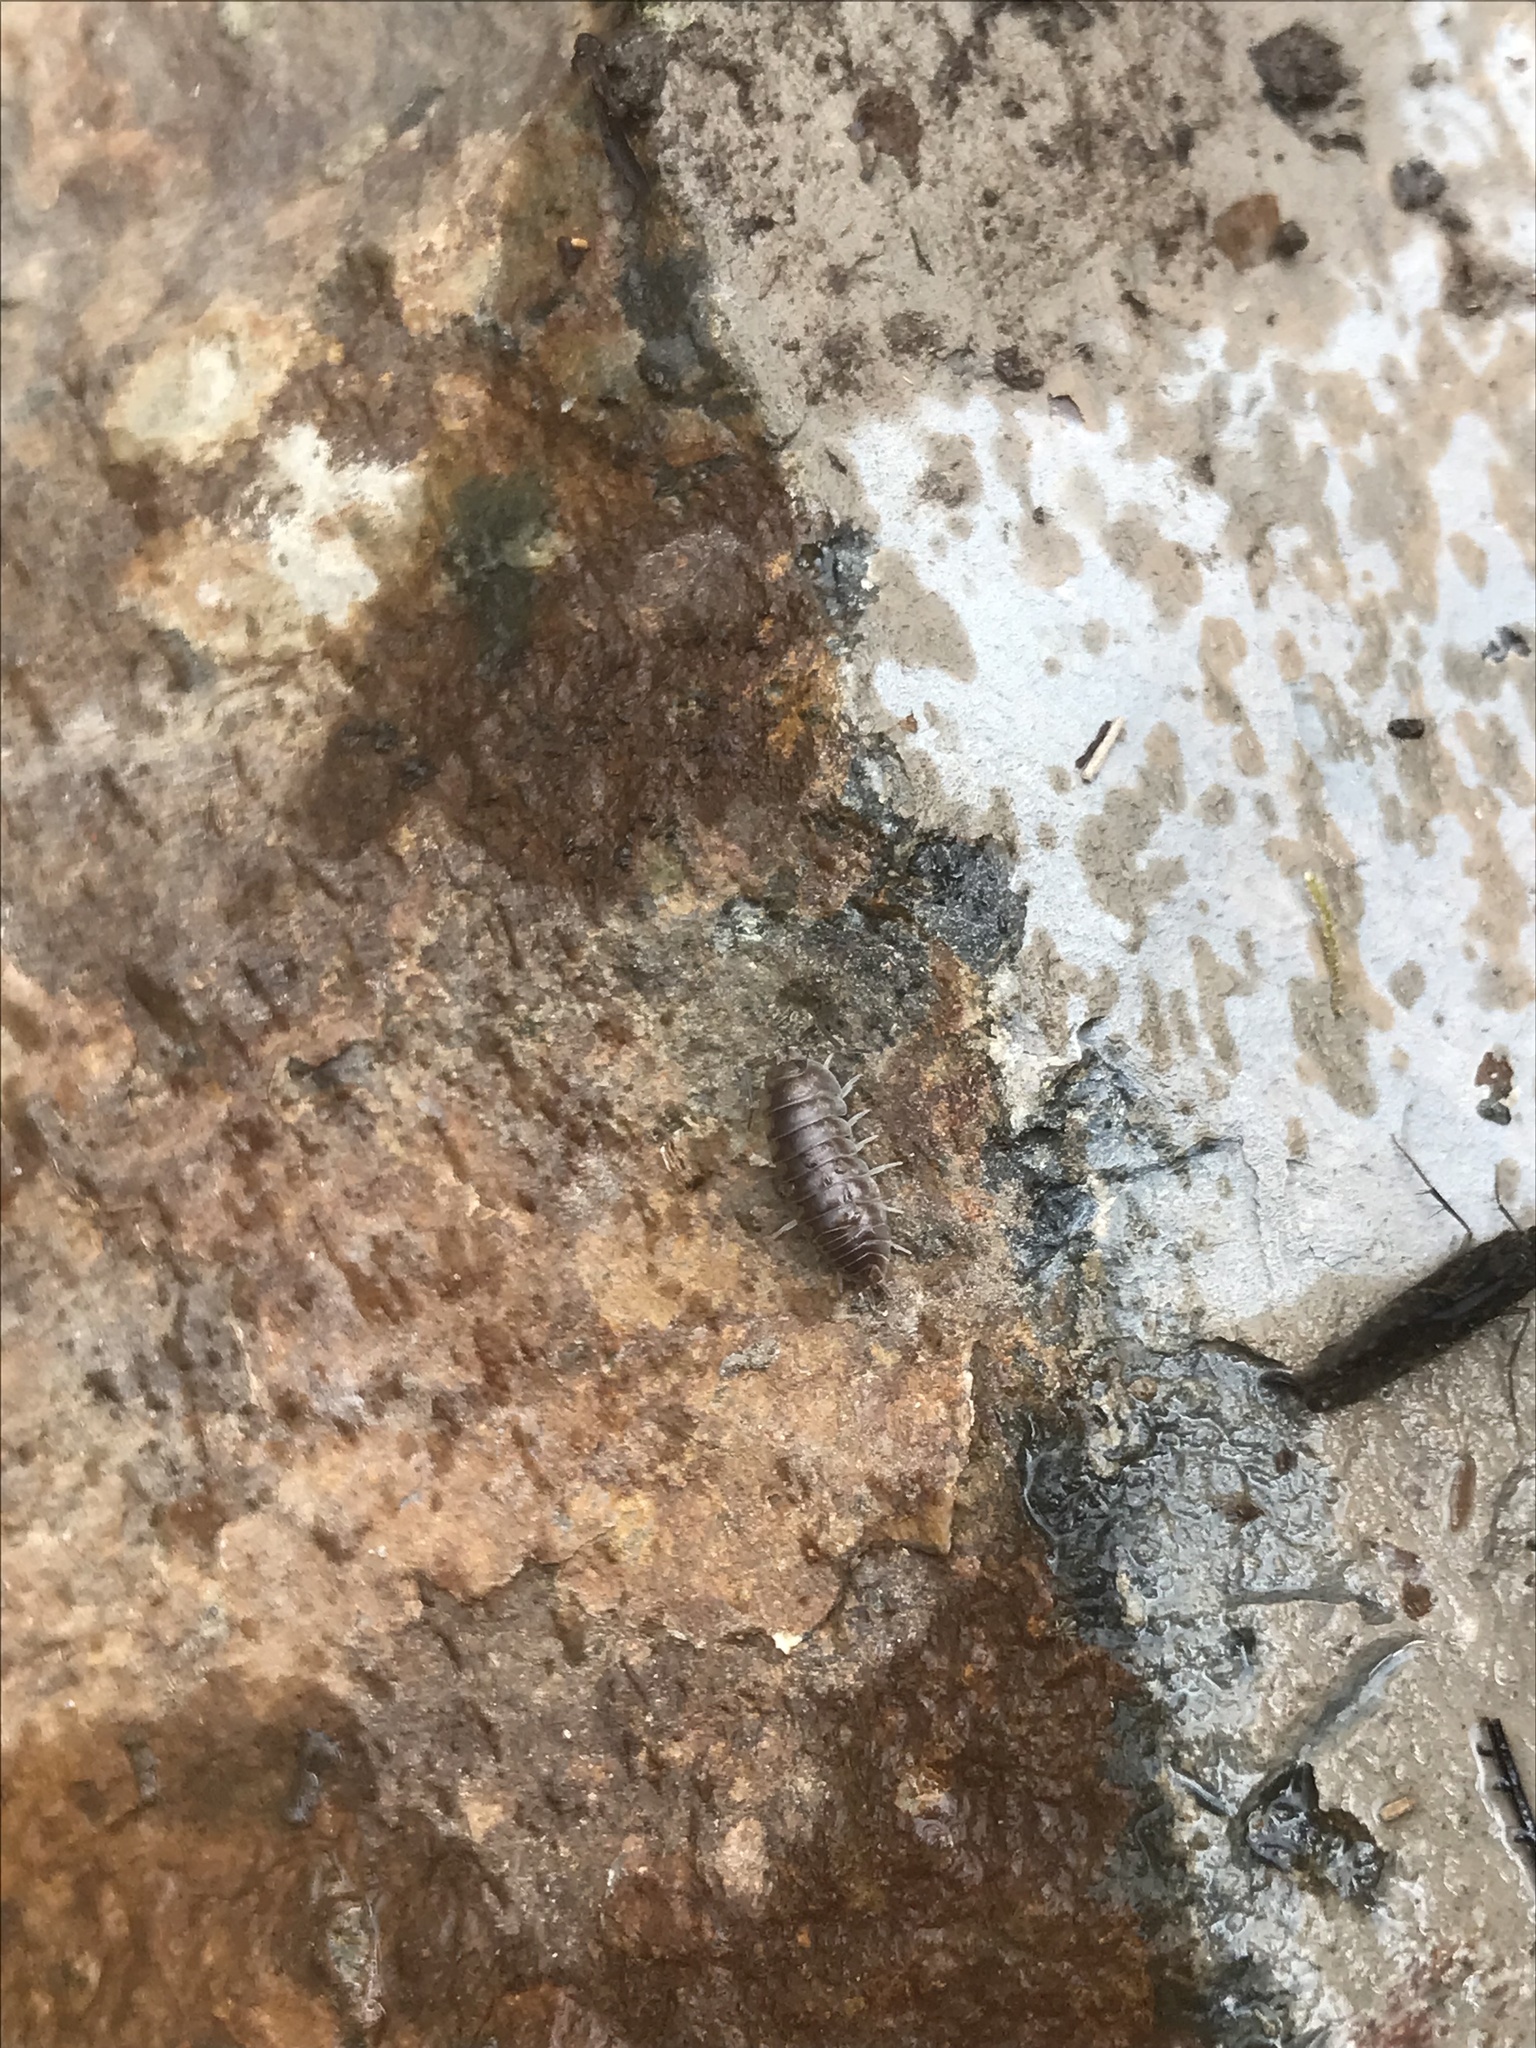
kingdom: Animalia
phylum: Arthropoda
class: Malacostraca
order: Isopoda
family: Cylisticidae
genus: Cylisticus
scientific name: Cylisticus convexus
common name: Curly woodlouse
